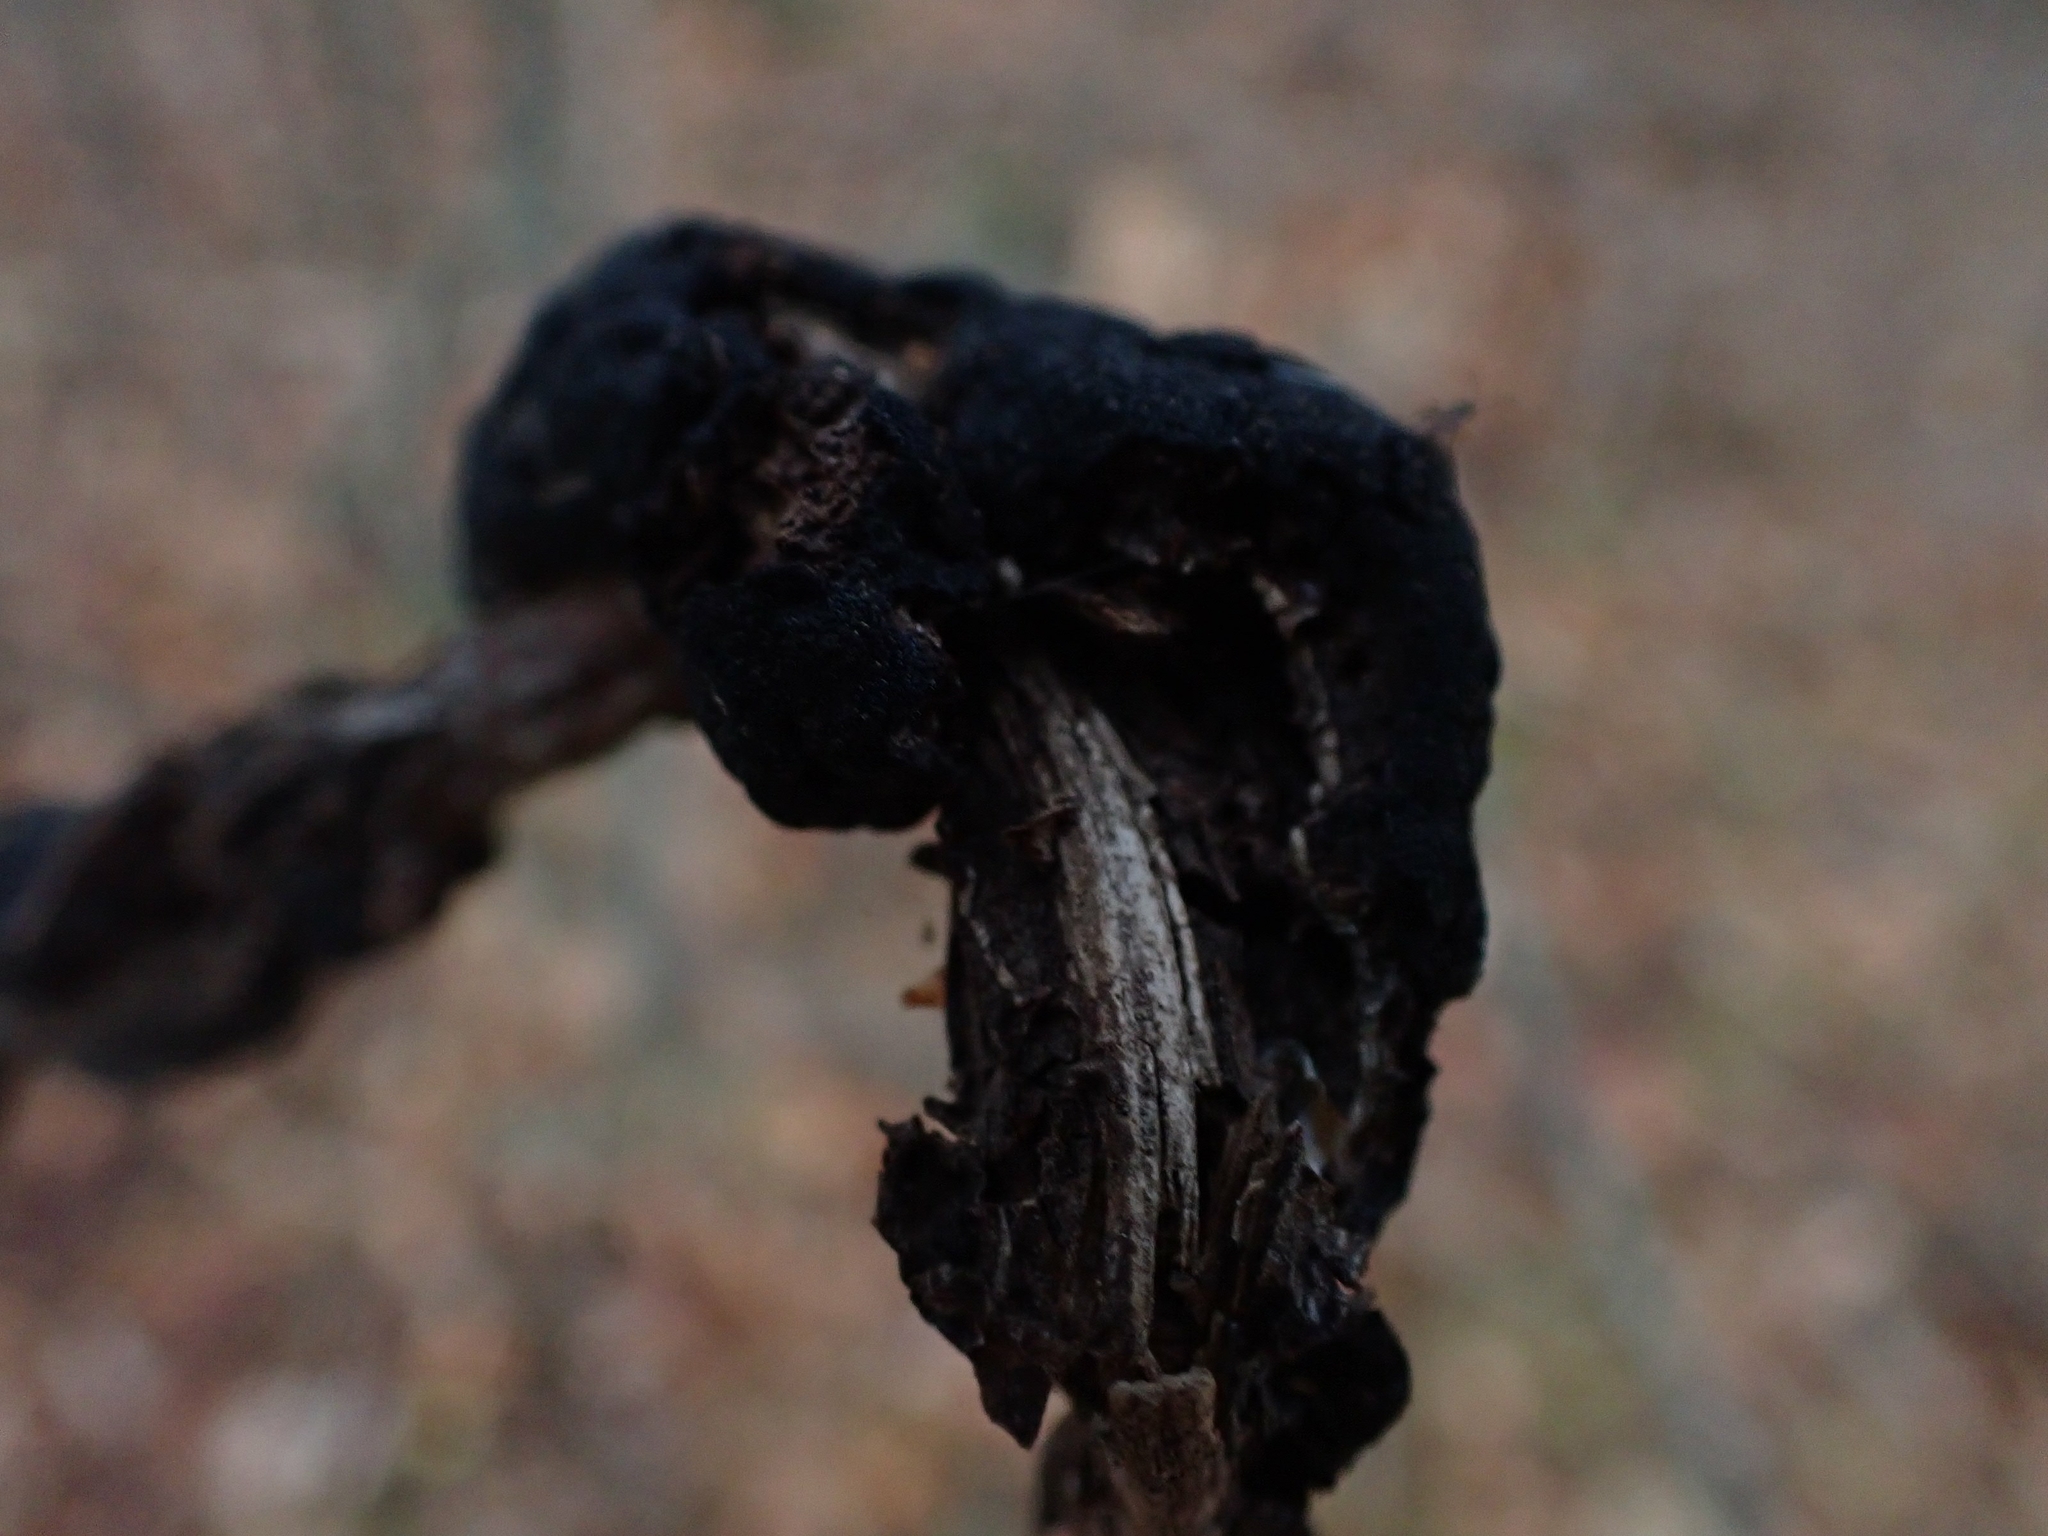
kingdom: Fungi
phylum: Ascomycota
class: Dothideomycetes
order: Venturiales
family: Venturiaceae
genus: Apiosporina
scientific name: Apiosporina morbosa
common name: Black knot
